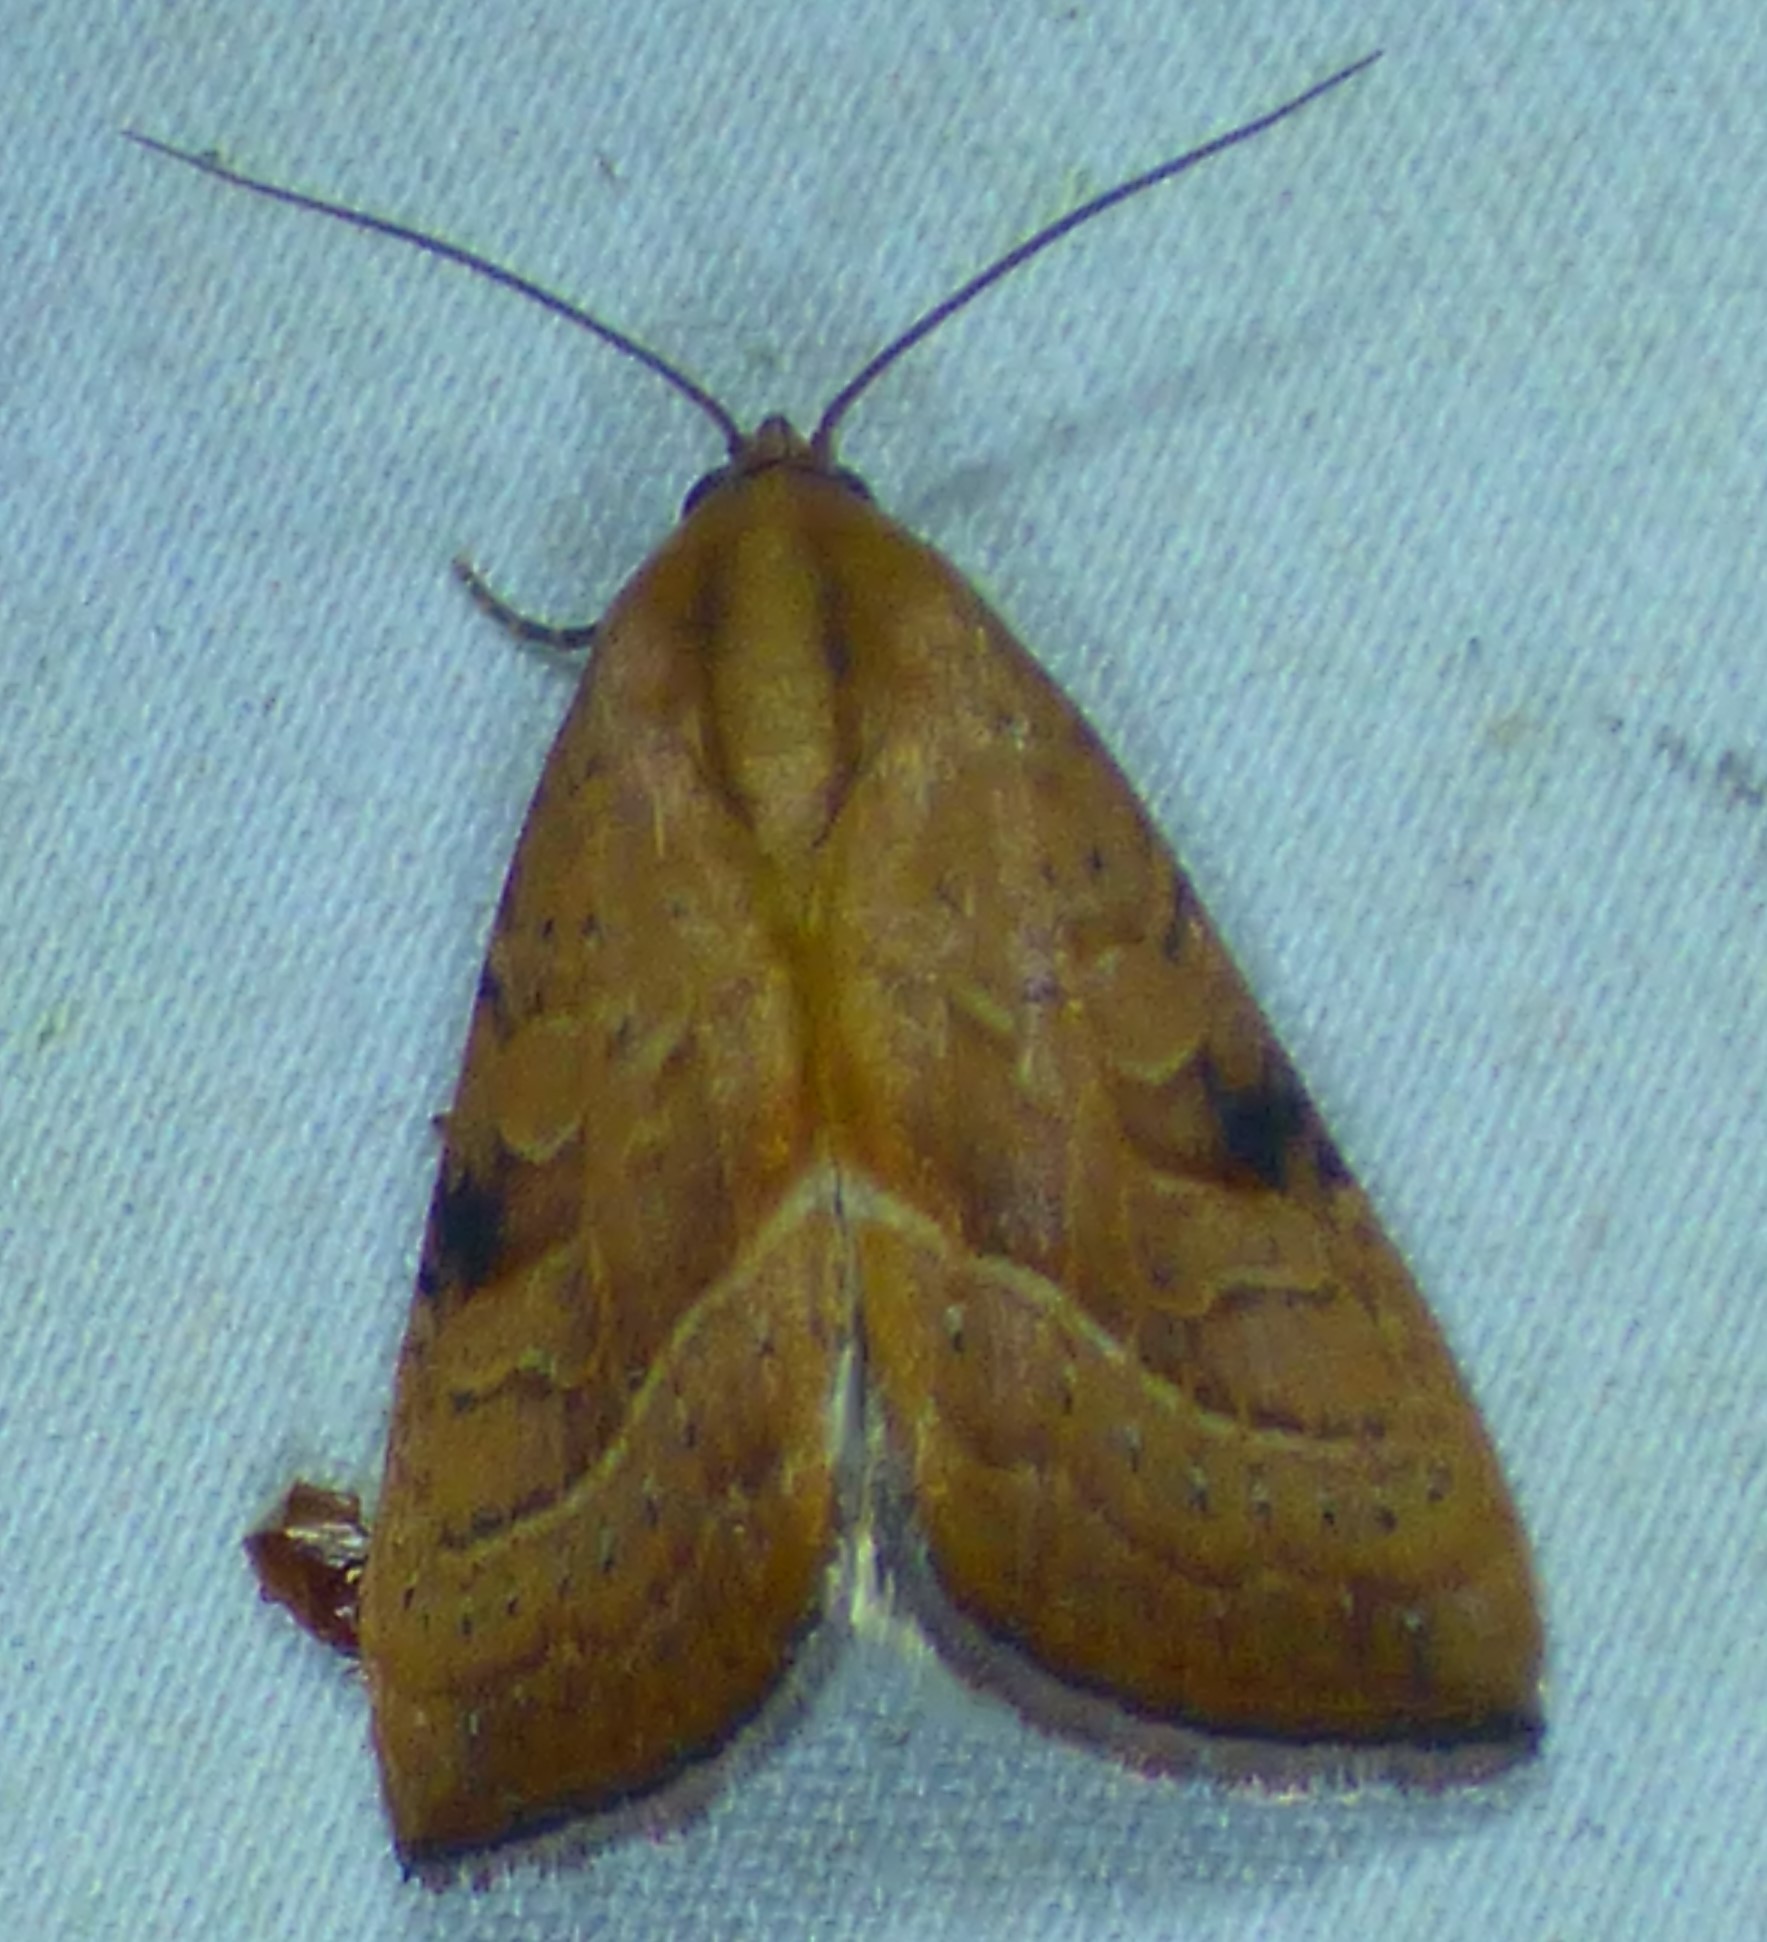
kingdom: Animalia
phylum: Arthropoda
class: Insecta
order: Lepidoptera
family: Noctuidae
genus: Galgula
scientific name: Galgula partita
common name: Wedgeling
